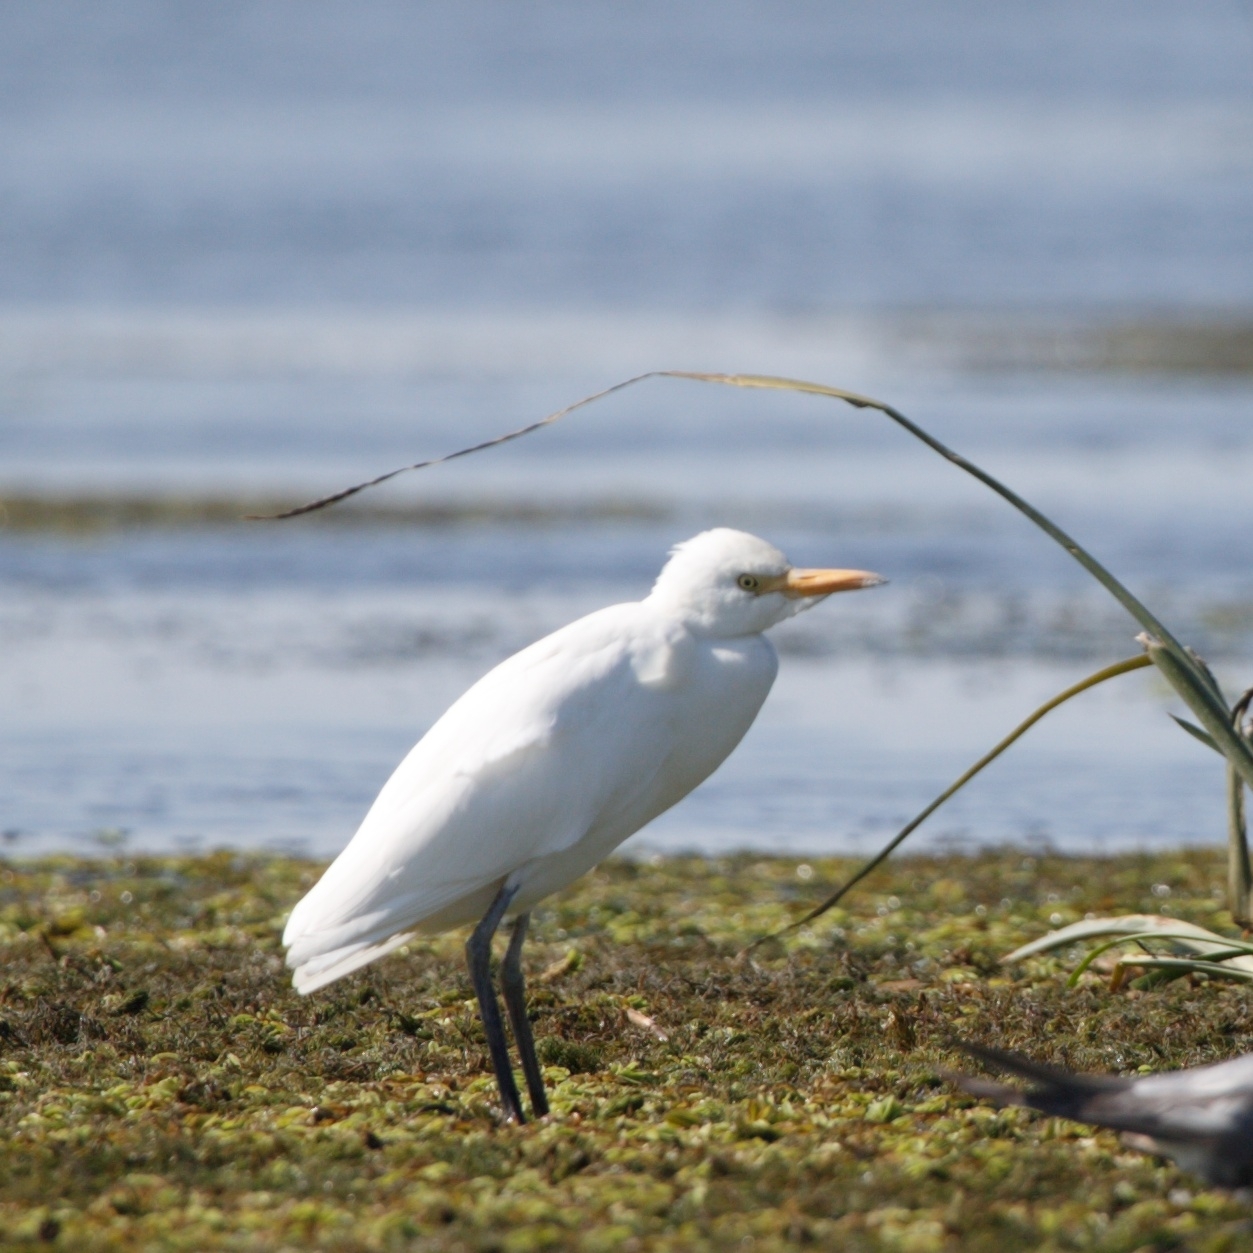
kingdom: Animalia
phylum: Chordata
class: Aves
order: Pelecaniformes
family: Ardeidae
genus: Bubulcus
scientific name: Bubulcus ibis
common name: Cattle egret
